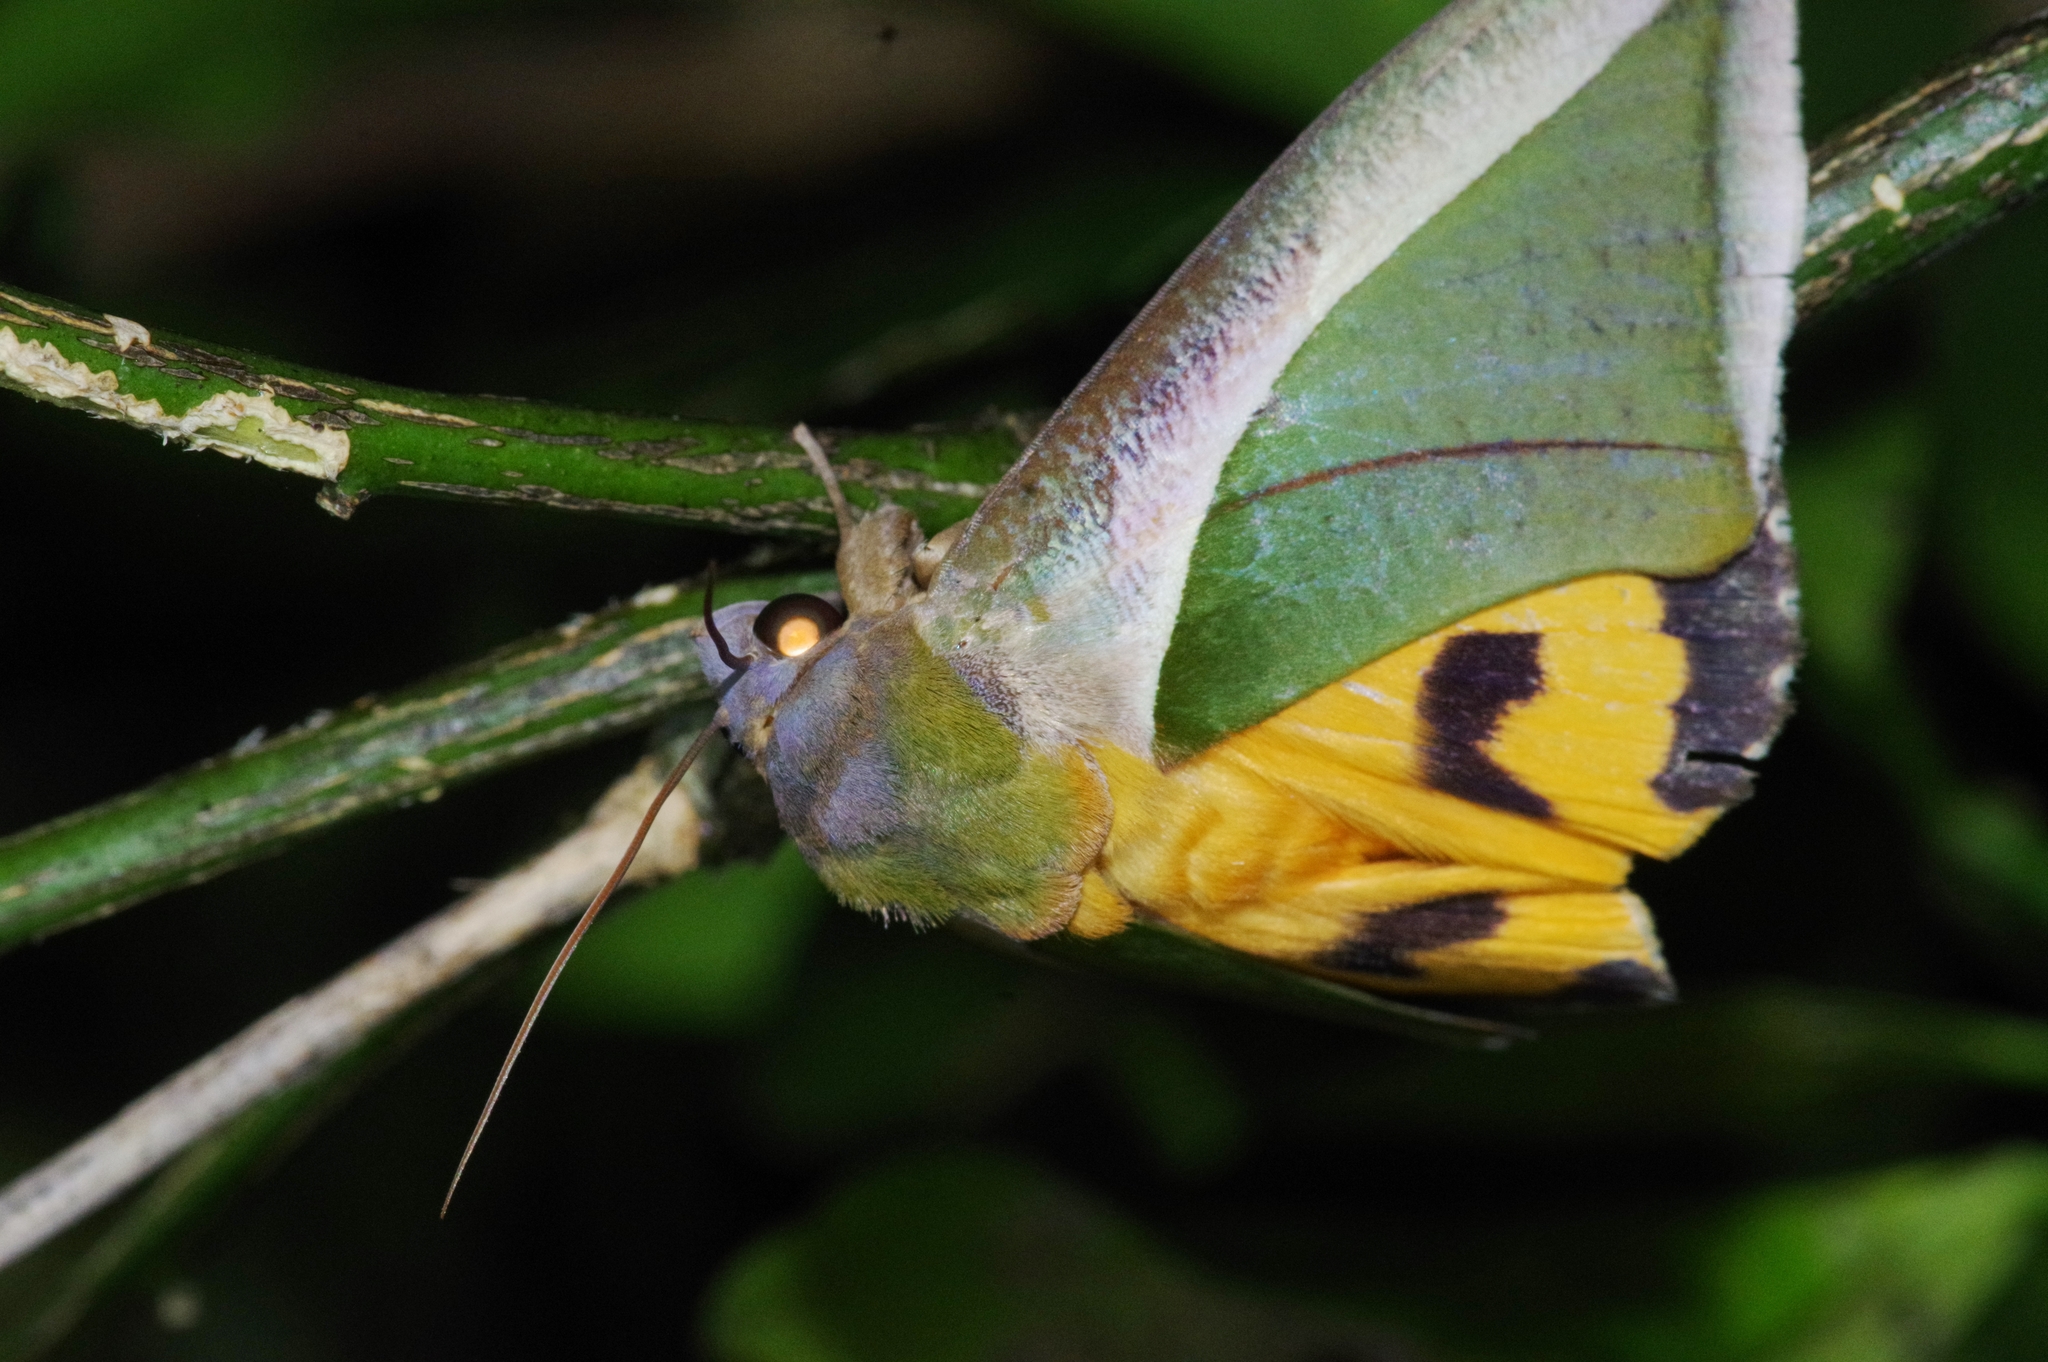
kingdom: Animalia
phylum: Arthropoda
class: Insecta
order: Lepidoptera
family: Erebidae
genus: Eudocima
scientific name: Eudocima salaminia
